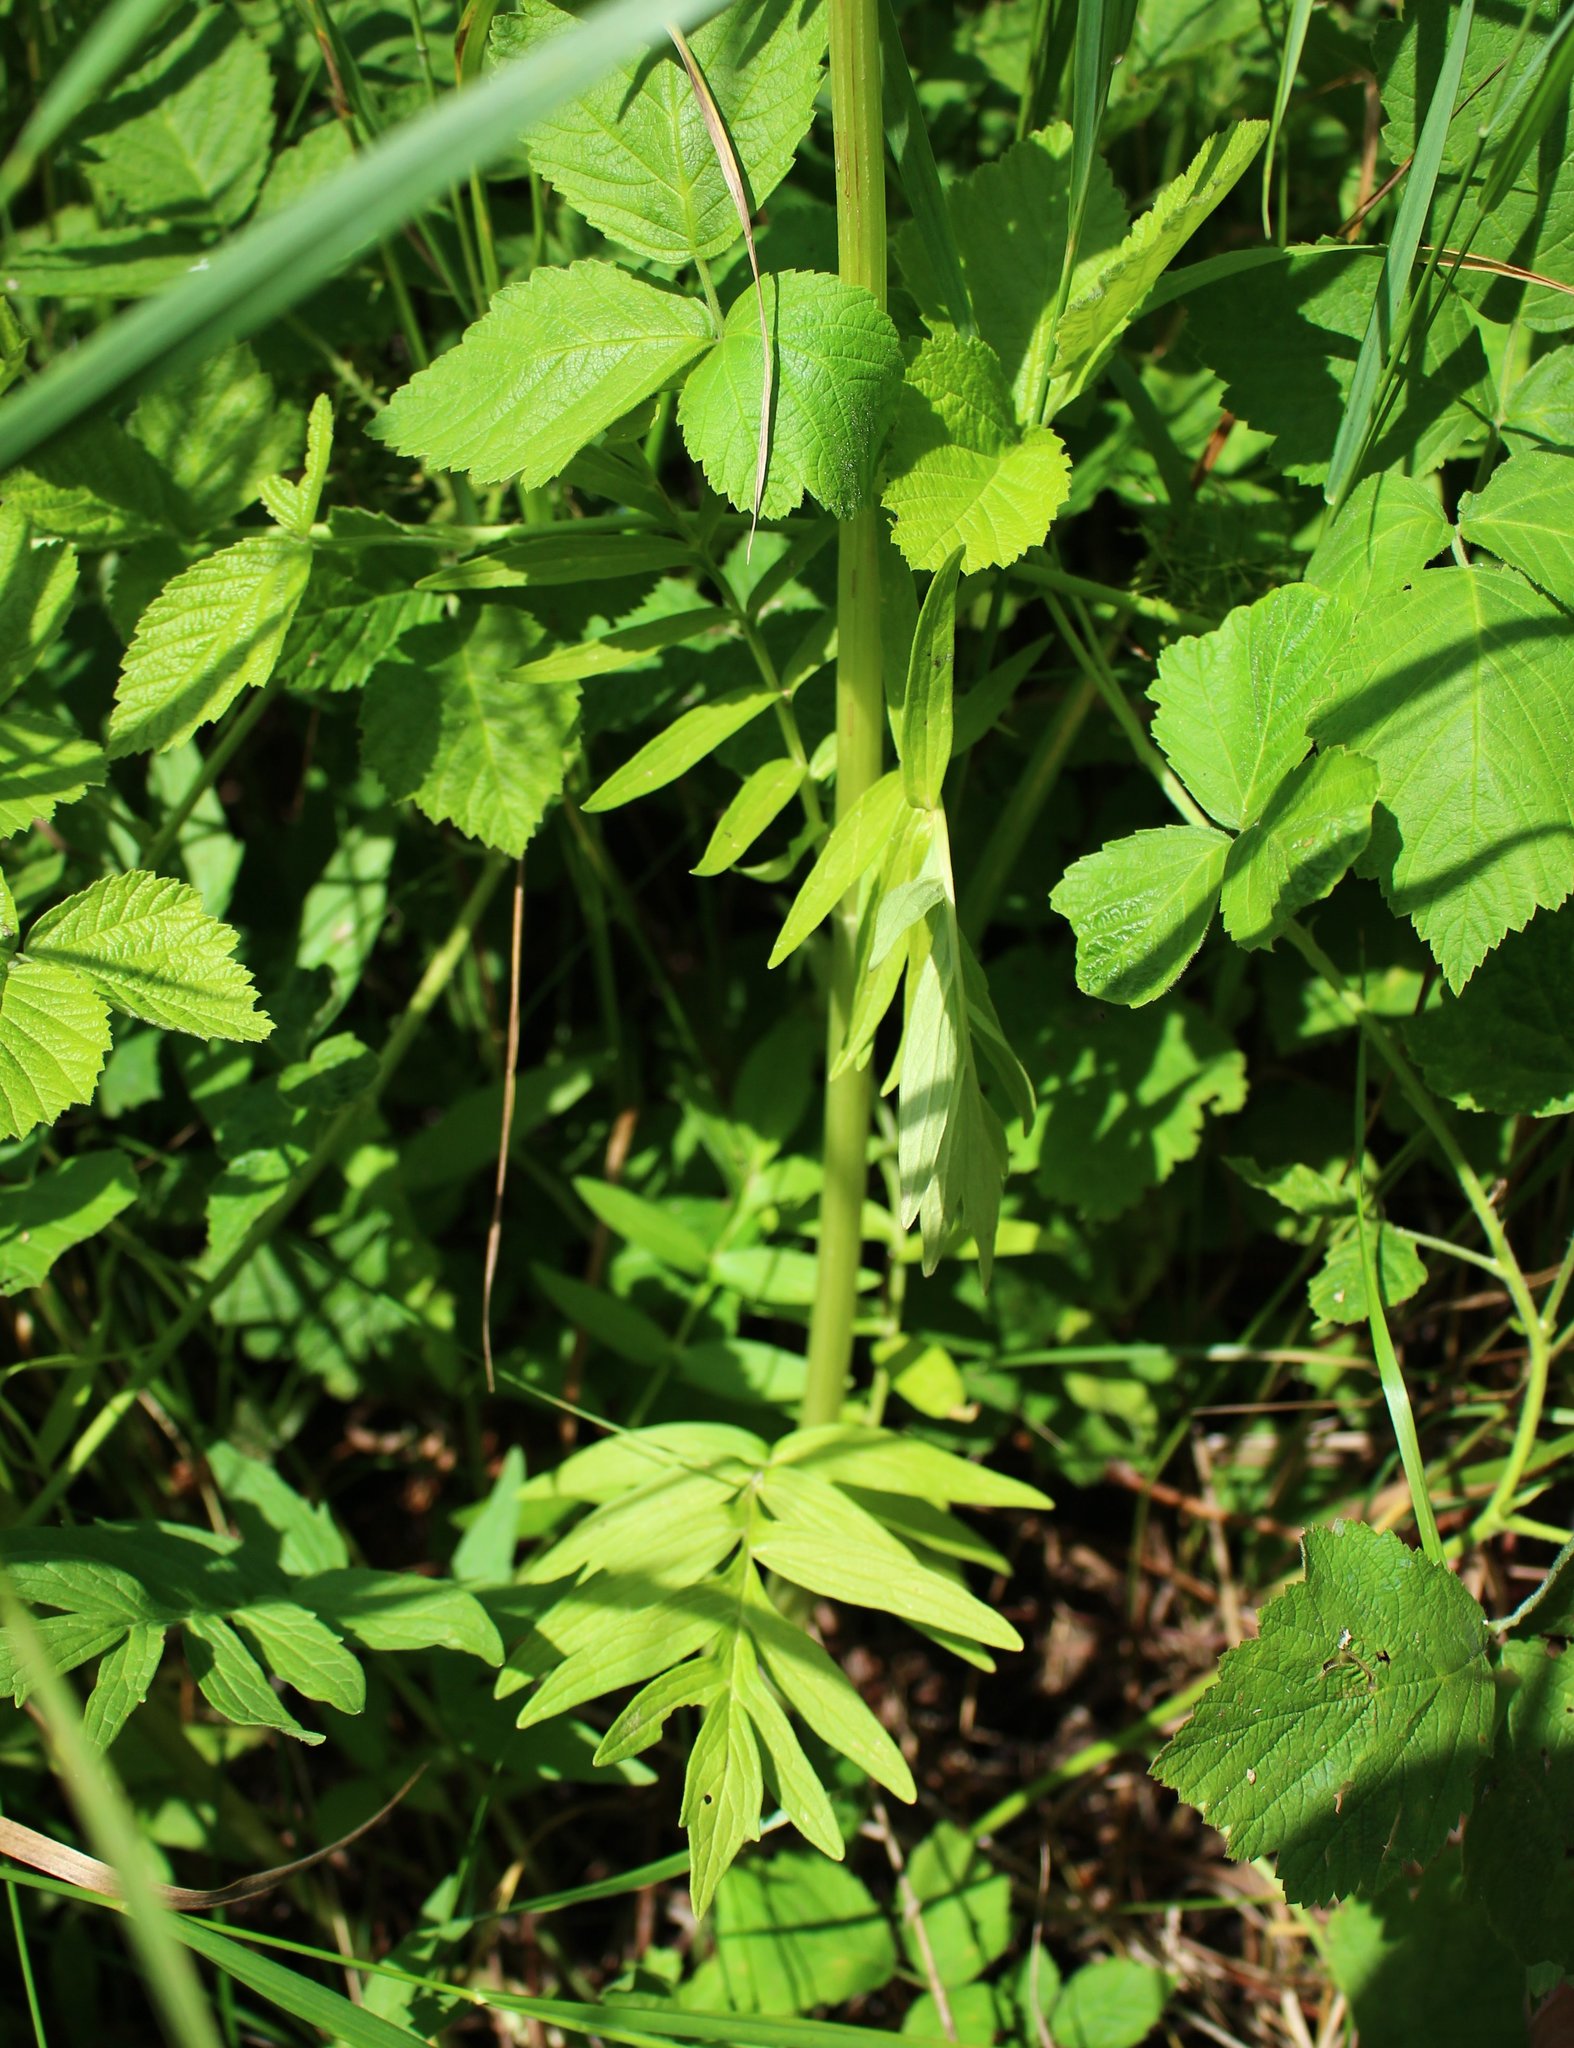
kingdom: Plantae
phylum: Tracheophyta
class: Magnoliopsida
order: Dipsacales
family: Caprifoliaceae
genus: Valeriana
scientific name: Valeriana officinalis
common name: Common valerian
